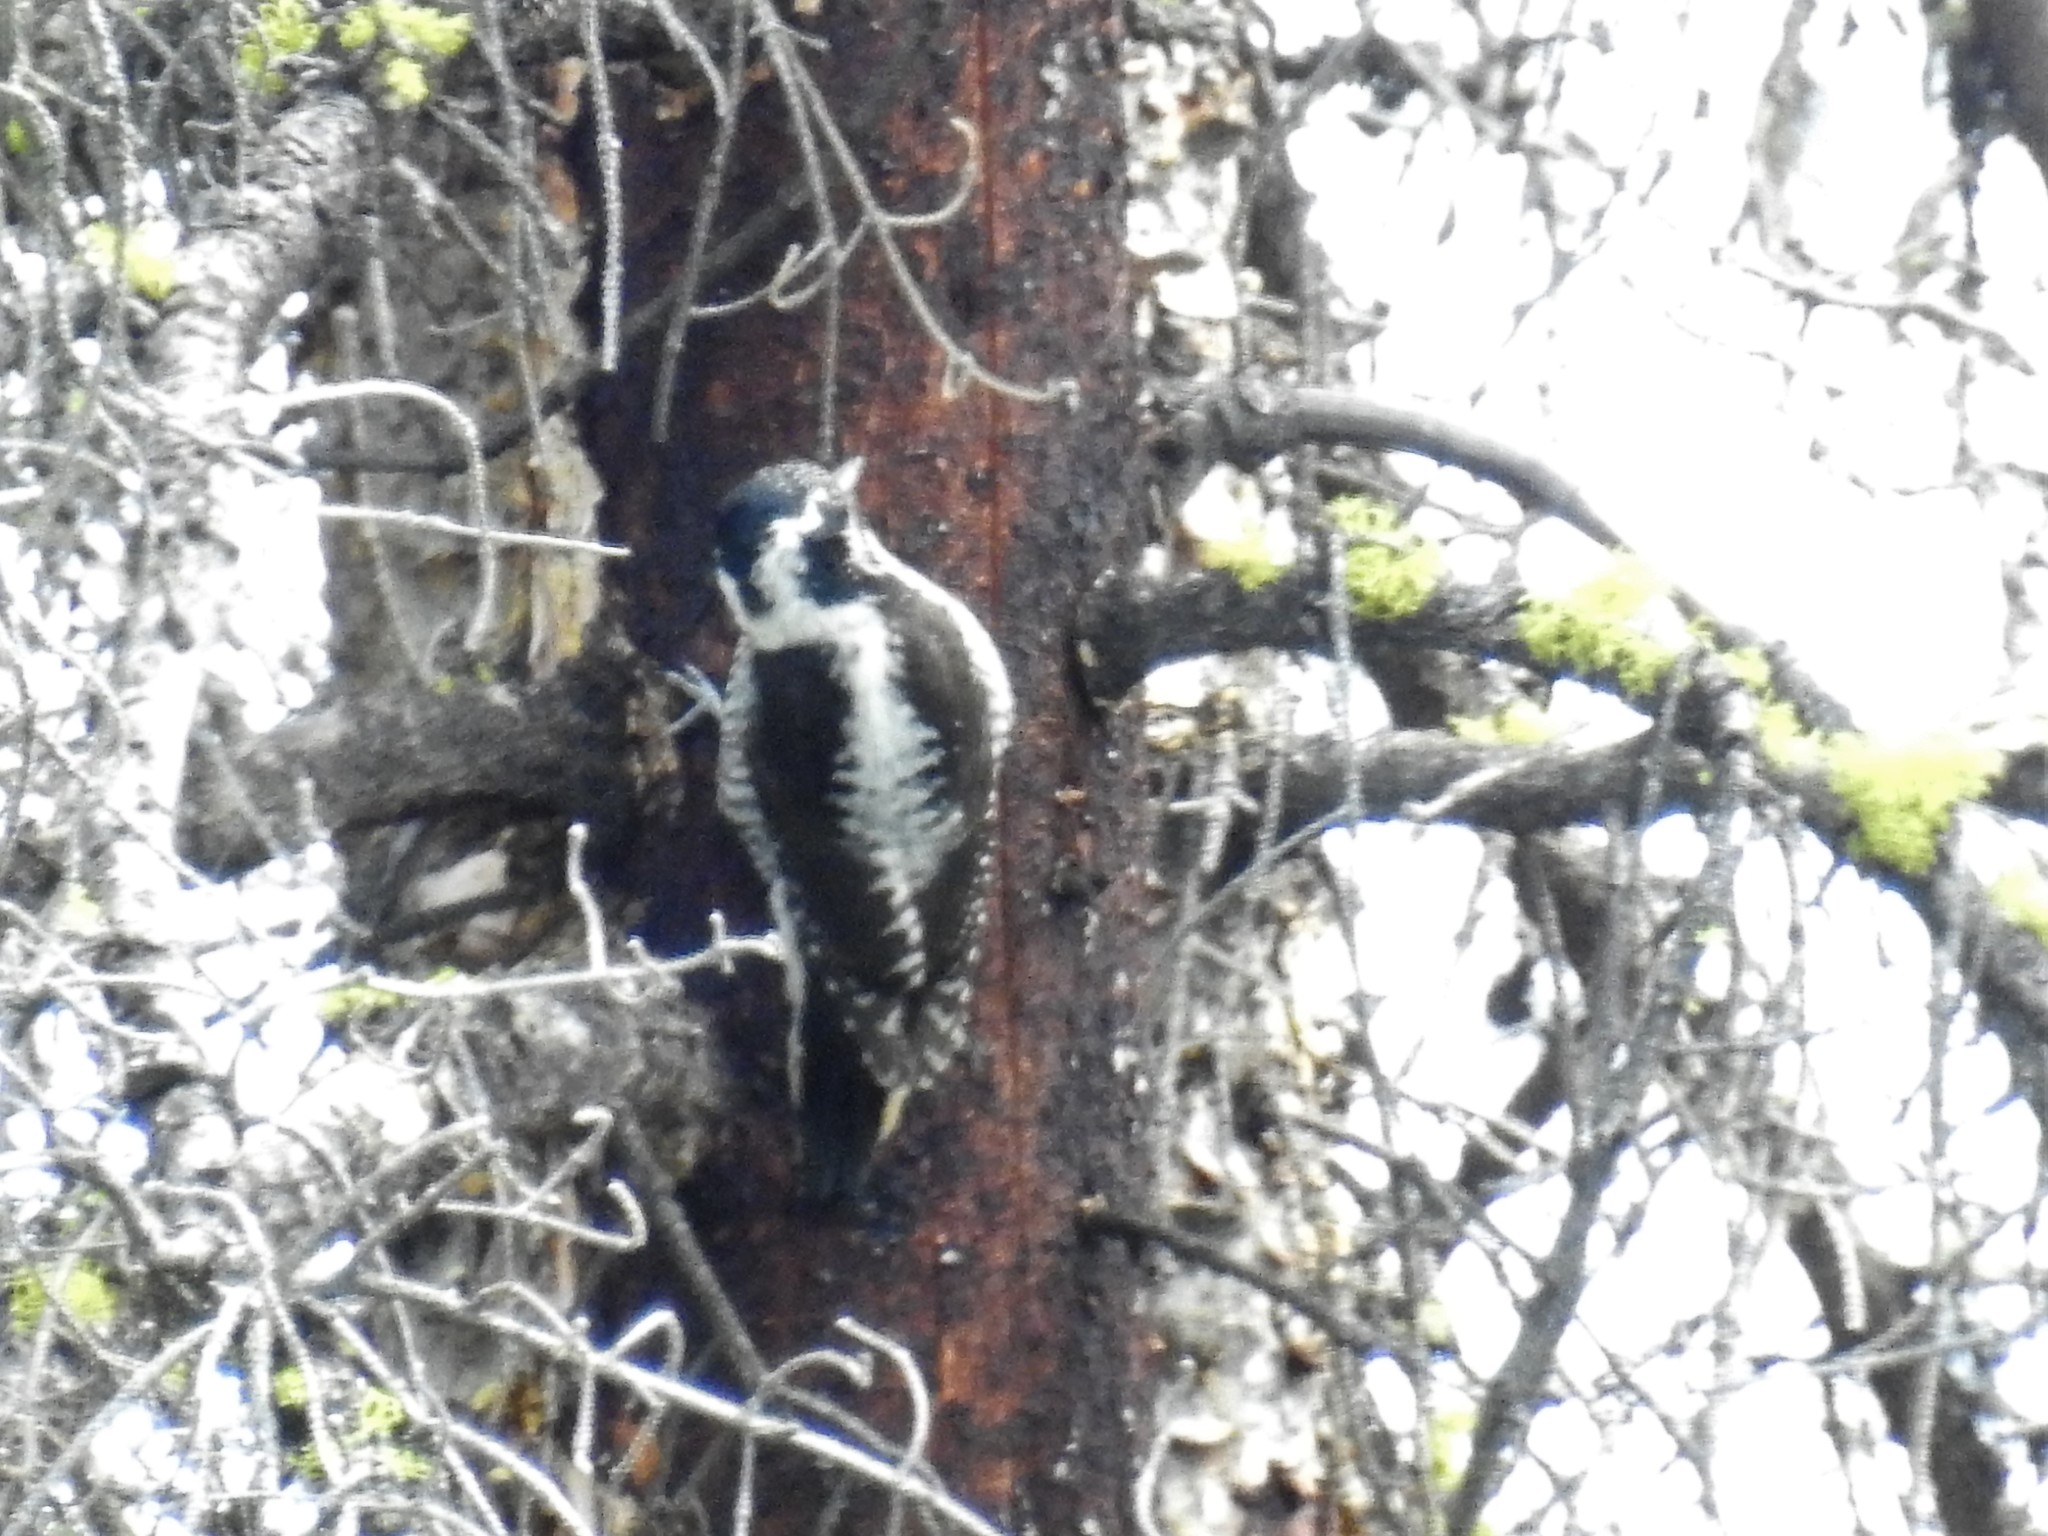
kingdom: Animalia
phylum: Chordata
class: Aves
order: Piciformes
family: Picidae
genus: Picoides
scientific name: Picoides dorsalis
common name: American three-toed woodpecker
